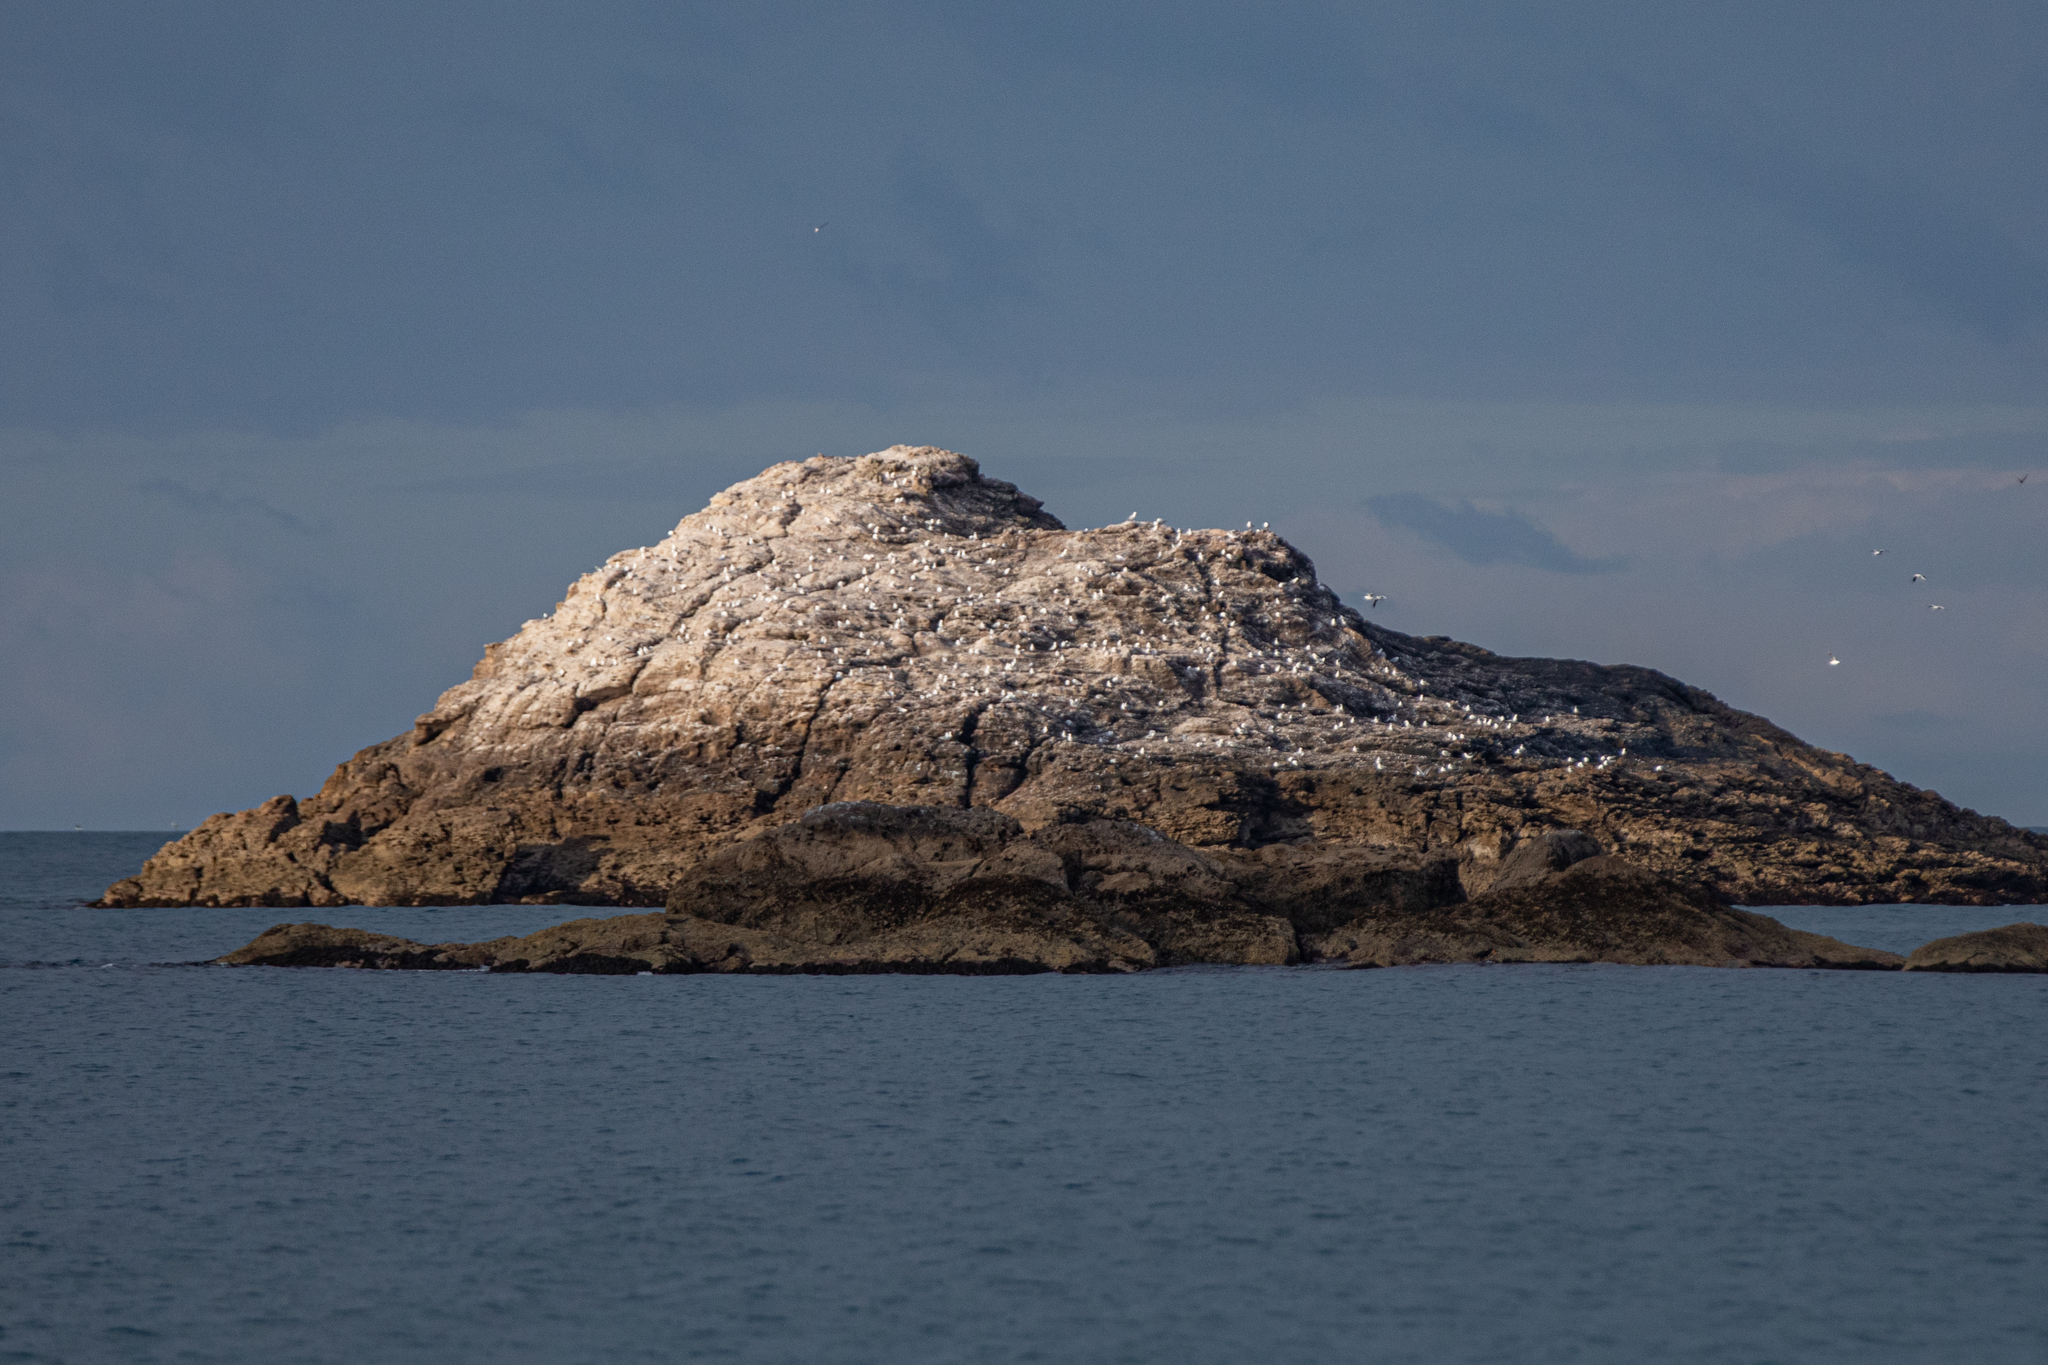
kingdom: Animalia
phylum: Chordata
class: Aves
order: Charadriiformes
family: Laridae
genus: Chroicocephalus
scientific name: Chroicocephalus novaehollandiae
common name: Silver gull
